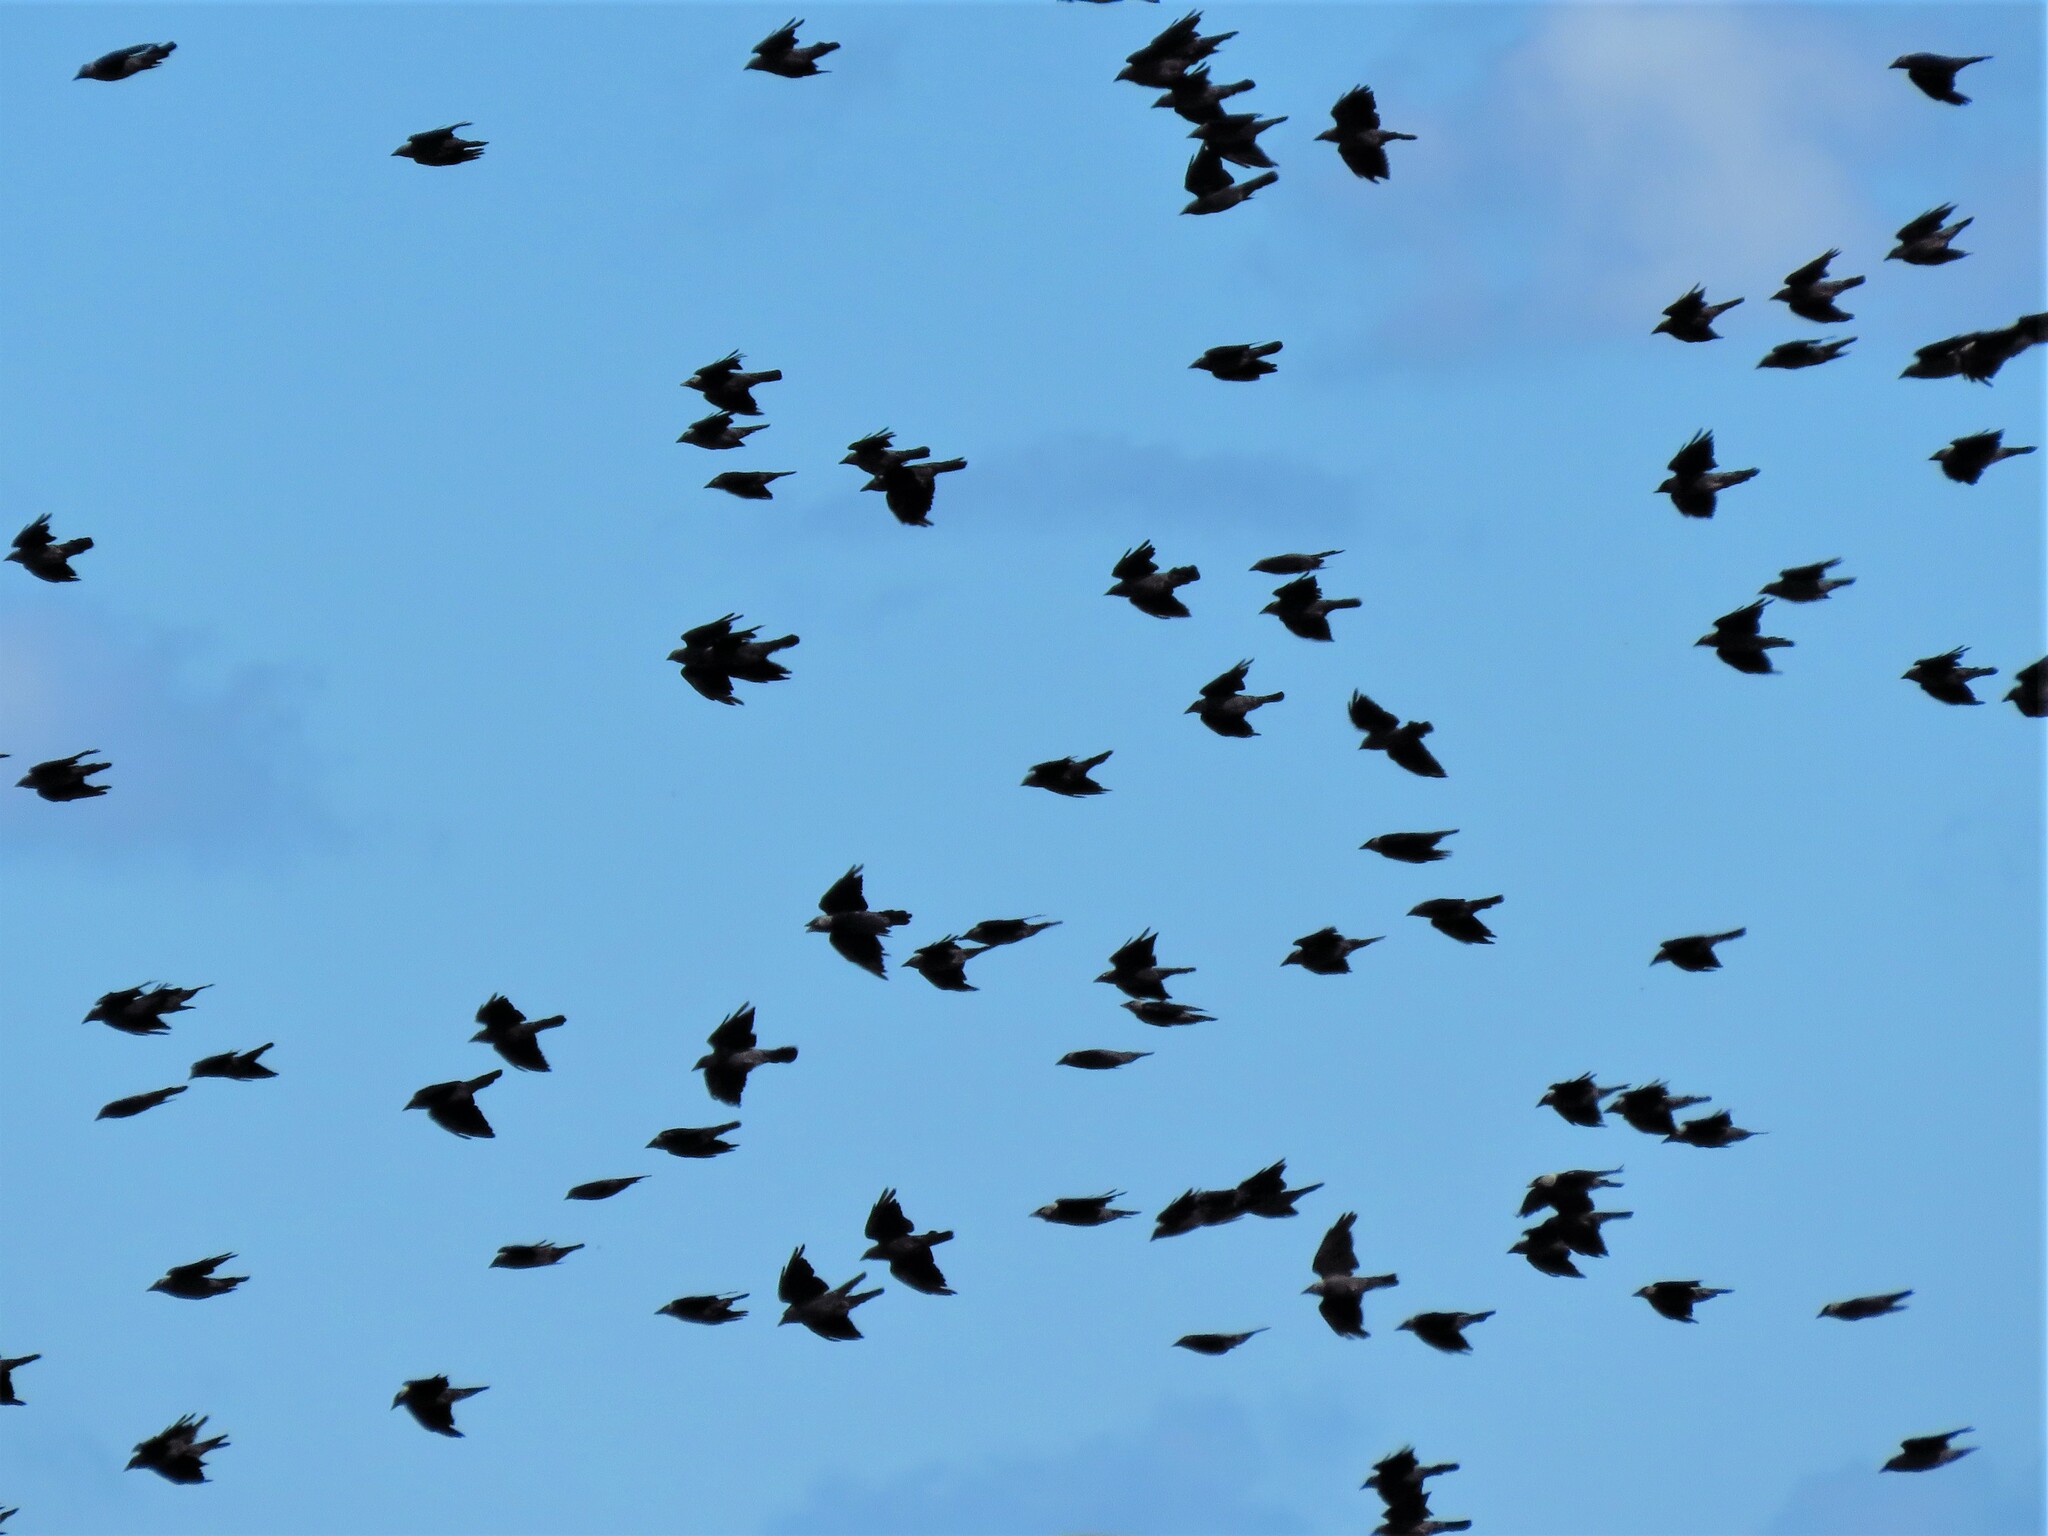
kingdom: Animalia
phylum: Chordata
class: Aves
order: Passeriformes
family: Corvidae
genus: Coloeus
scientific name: Coloeus monedula
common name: Western jackdaw
